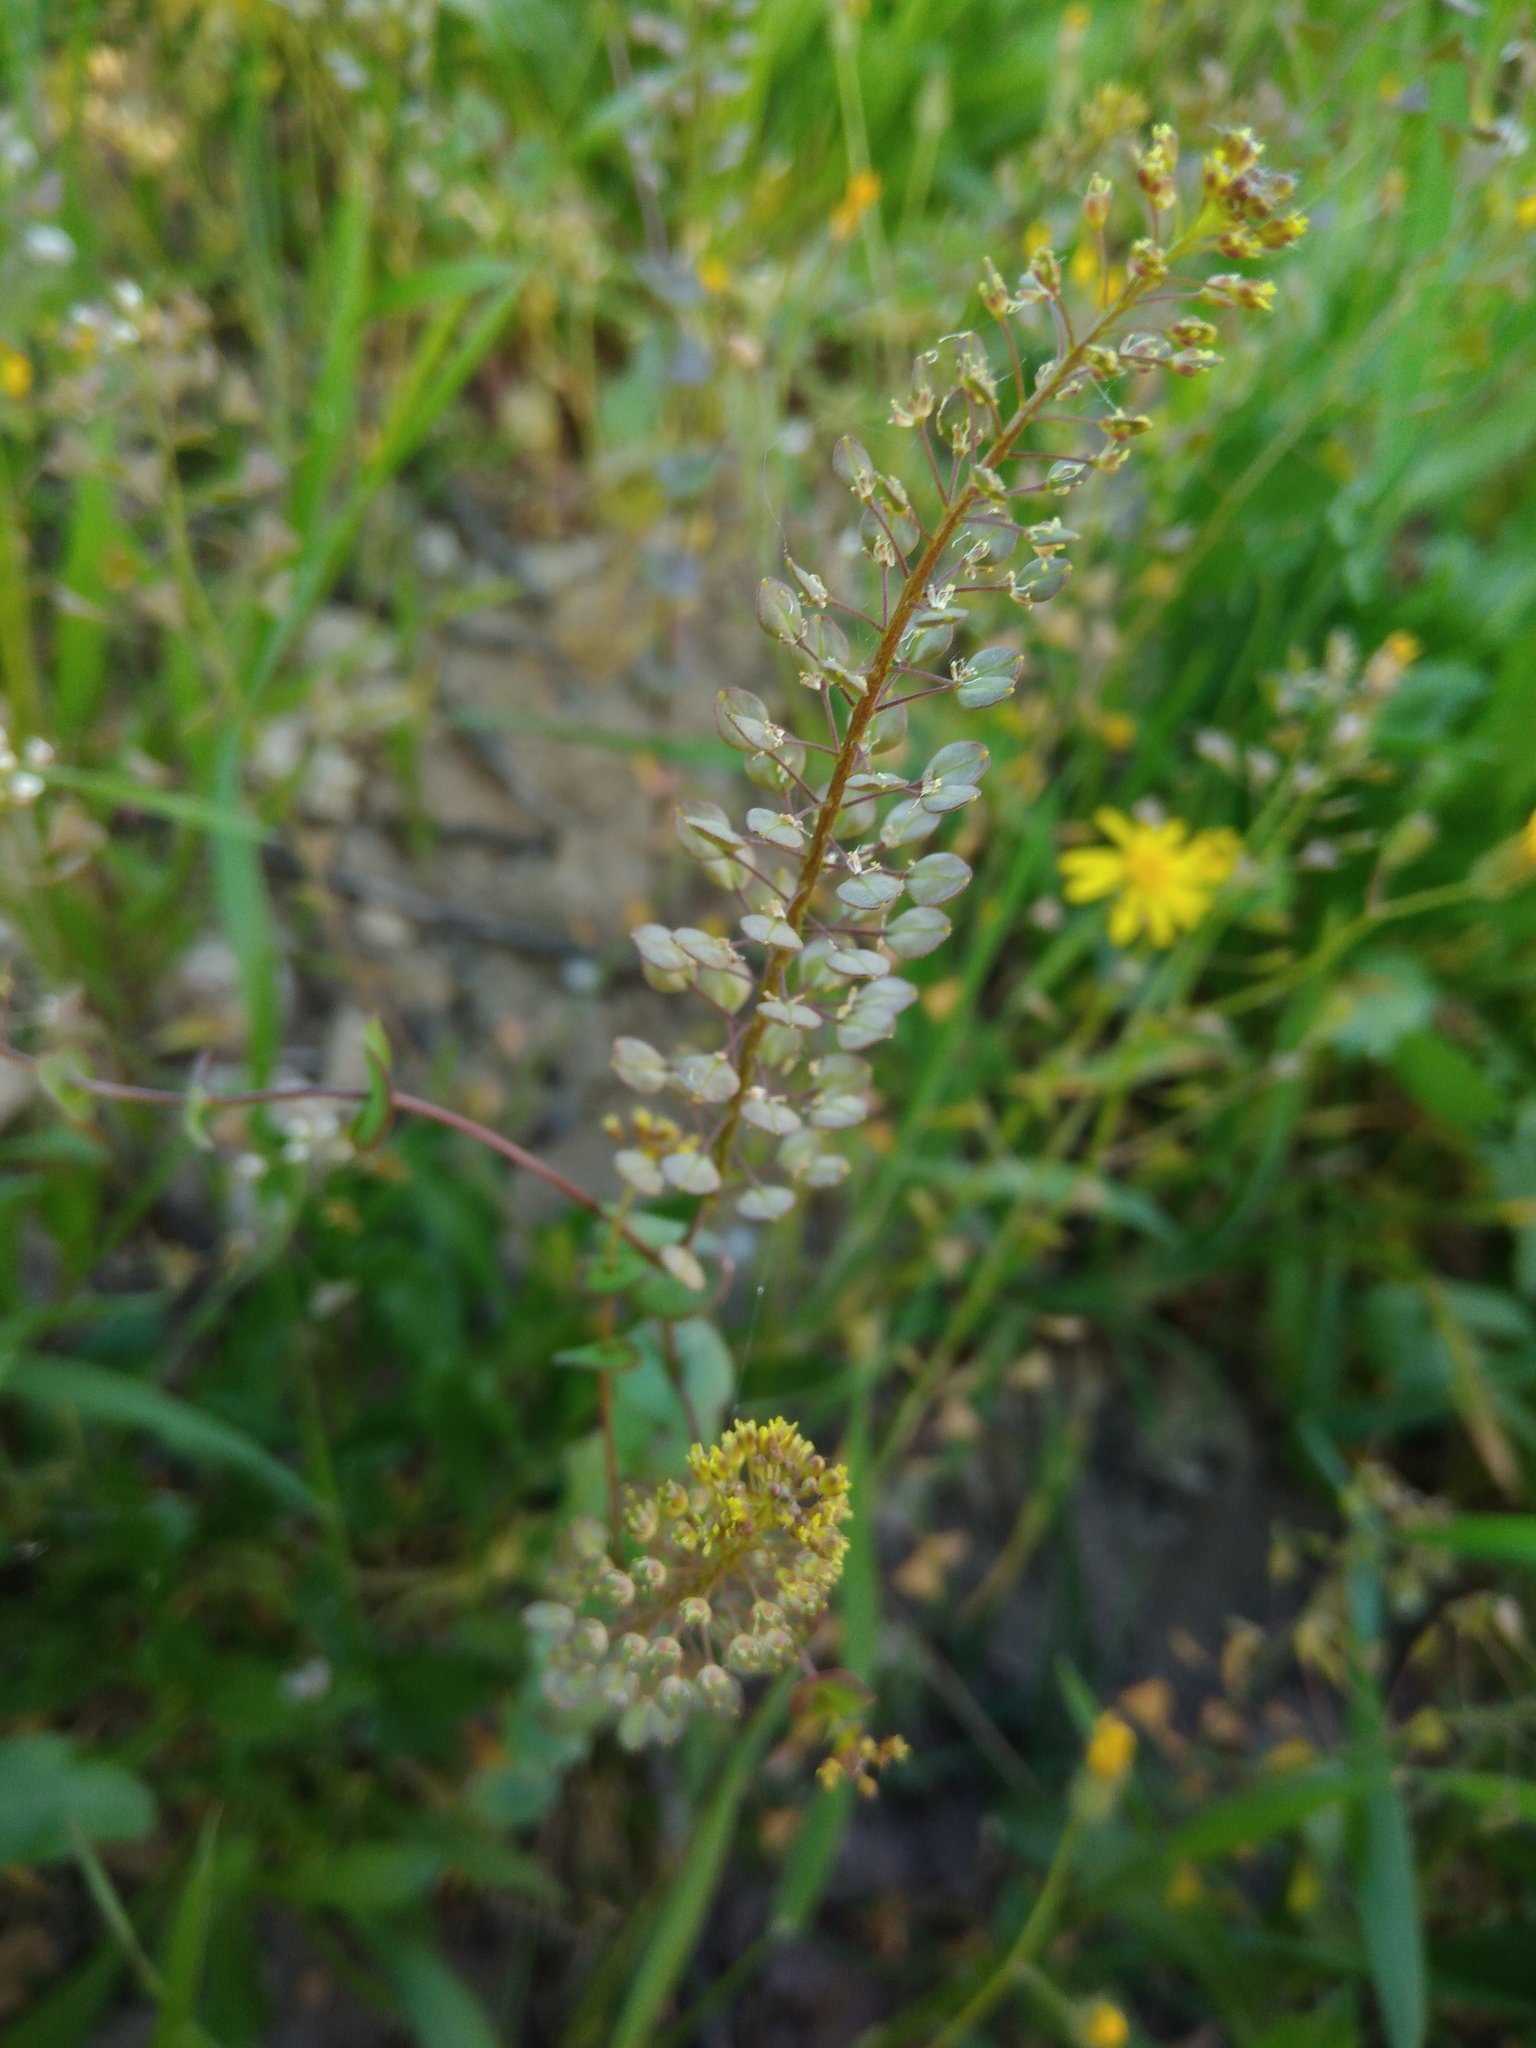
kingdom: Plantae
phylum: Tracheophyta
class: Magnoliopsida
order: Brassicales
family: Brassicaceae
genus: Lepidium
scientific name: Lepidium perfoliatum
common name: Perfoliate pepperwort
